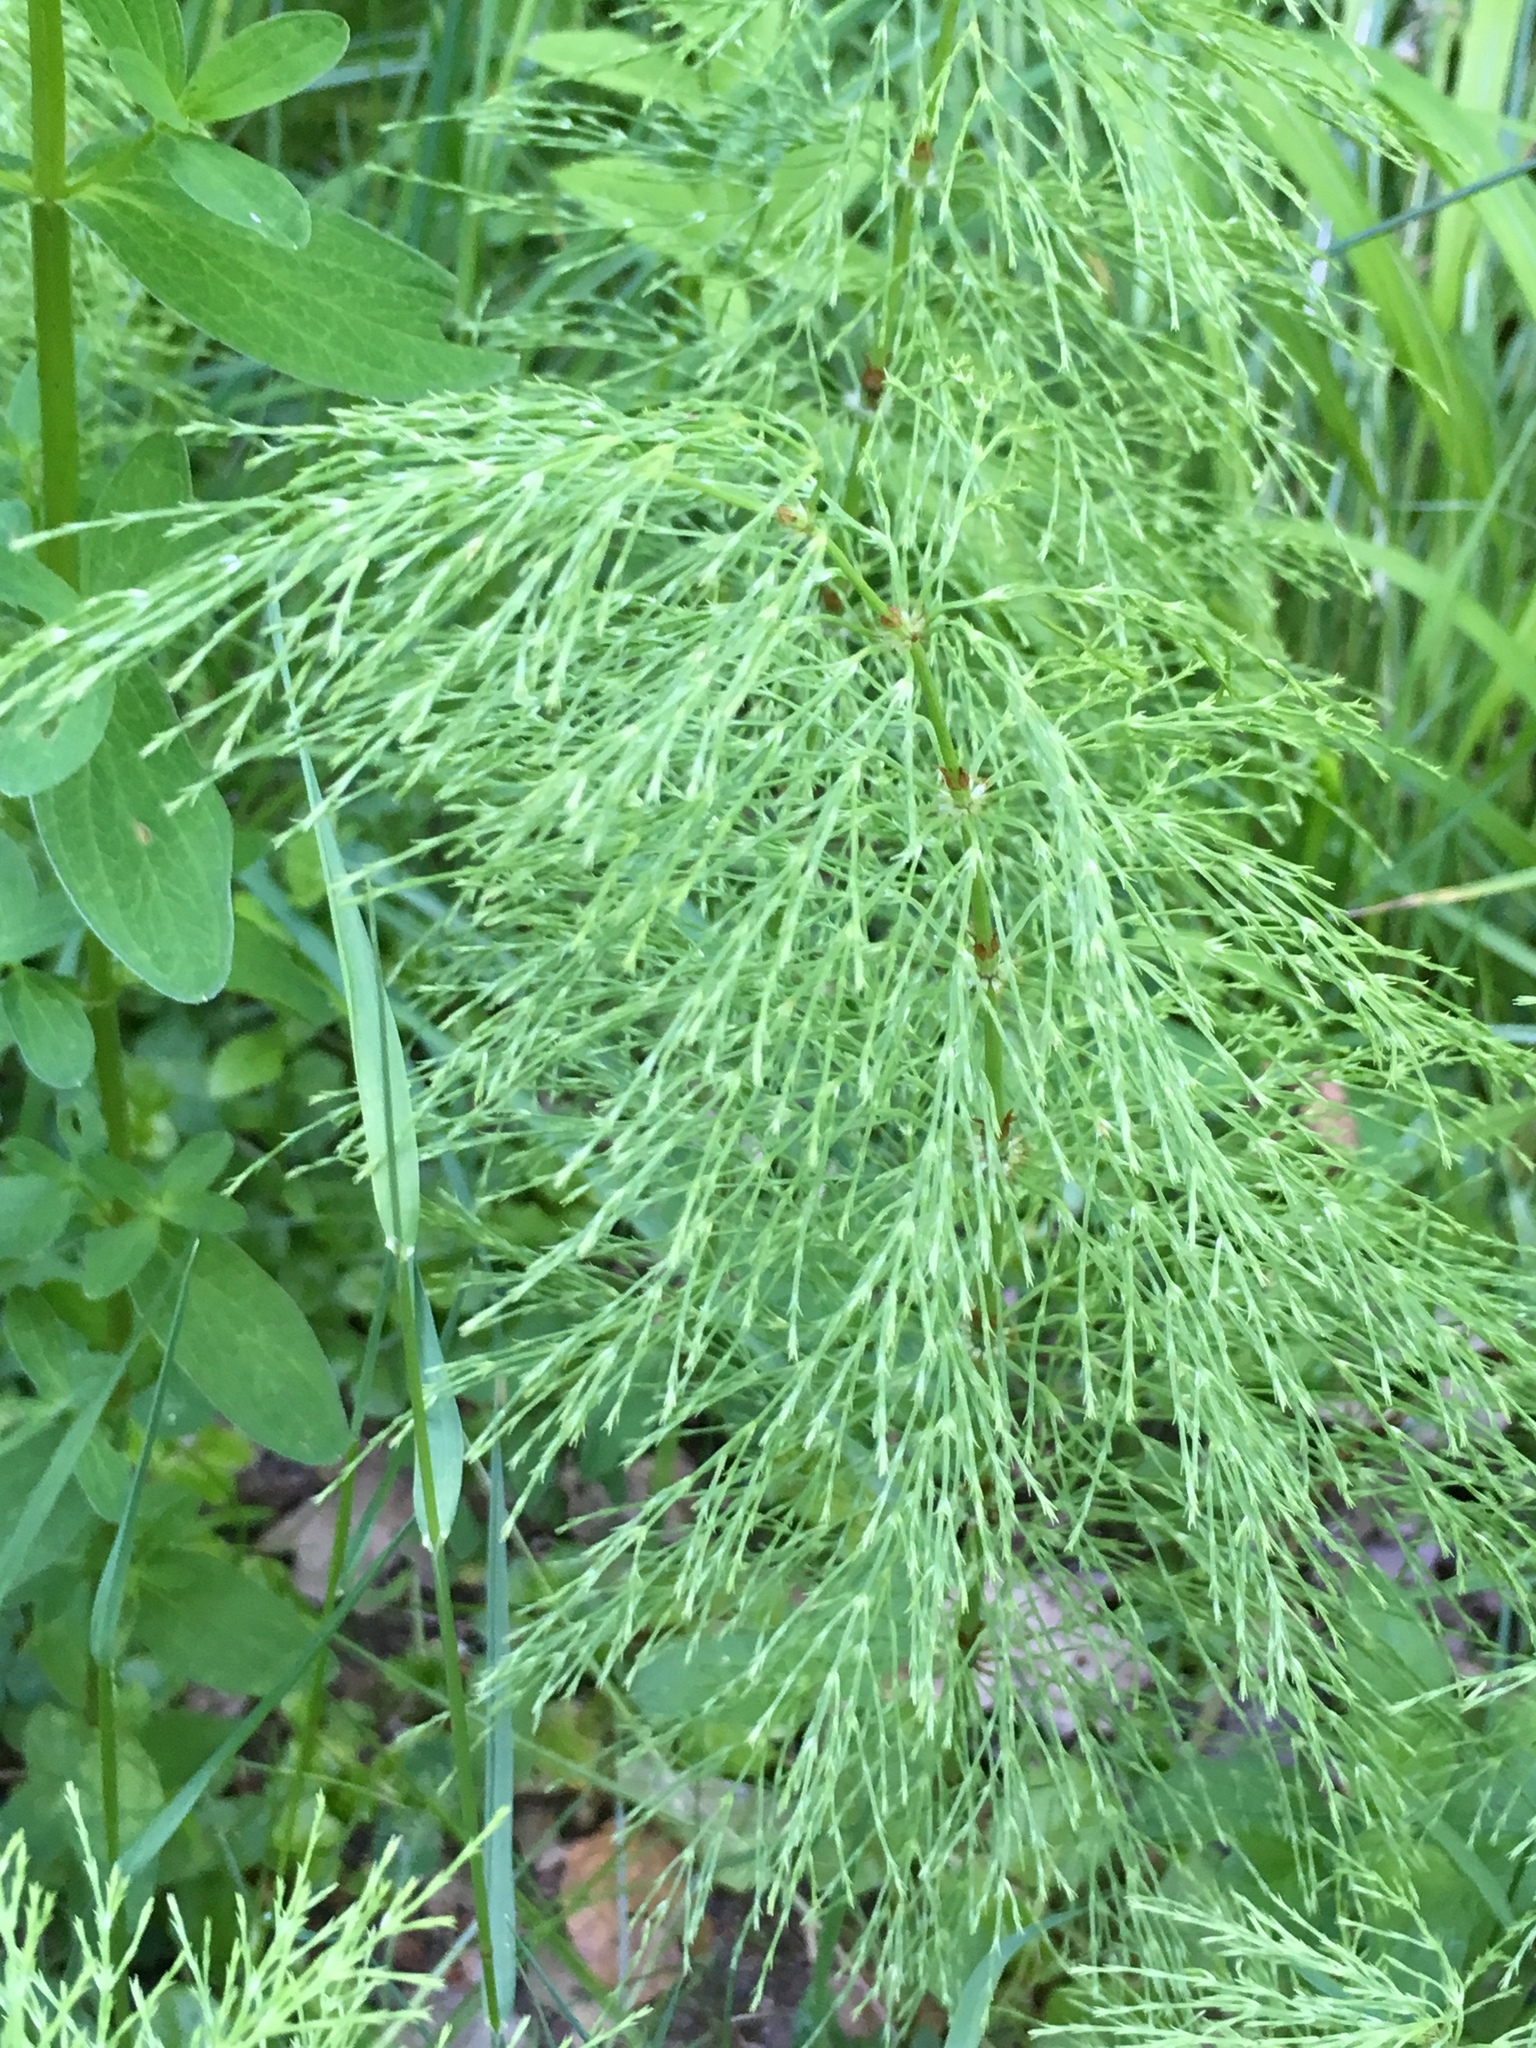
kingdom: Plantae
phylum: Tracheophyta
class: Polypodiopsida
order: Equisetales
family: Equisetaceae
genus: Equisetum
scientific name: Equisetum sylvaticum
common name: Wood horsetail
